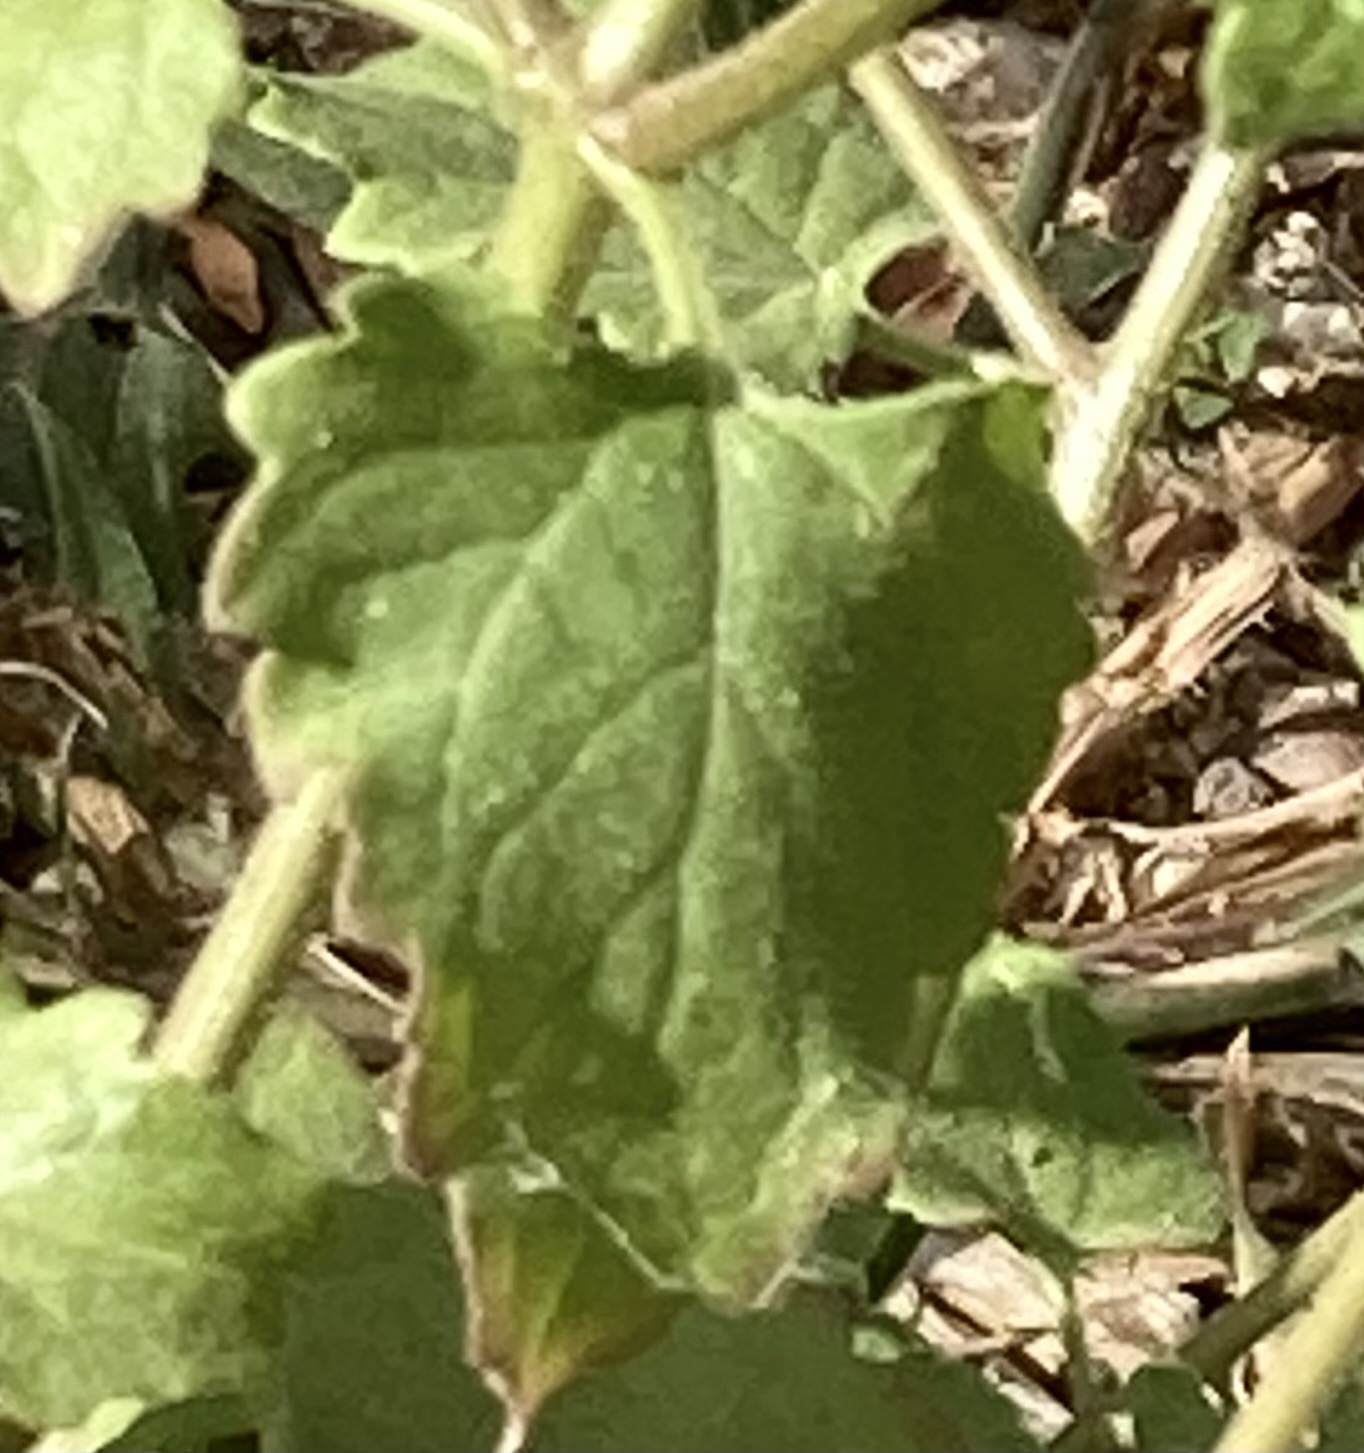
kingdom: Plantae
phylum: Tracheophyta
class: Magnoliopsida
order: Asterales
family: Asteraceae
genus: Perityle
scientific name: Perityle cuneata
